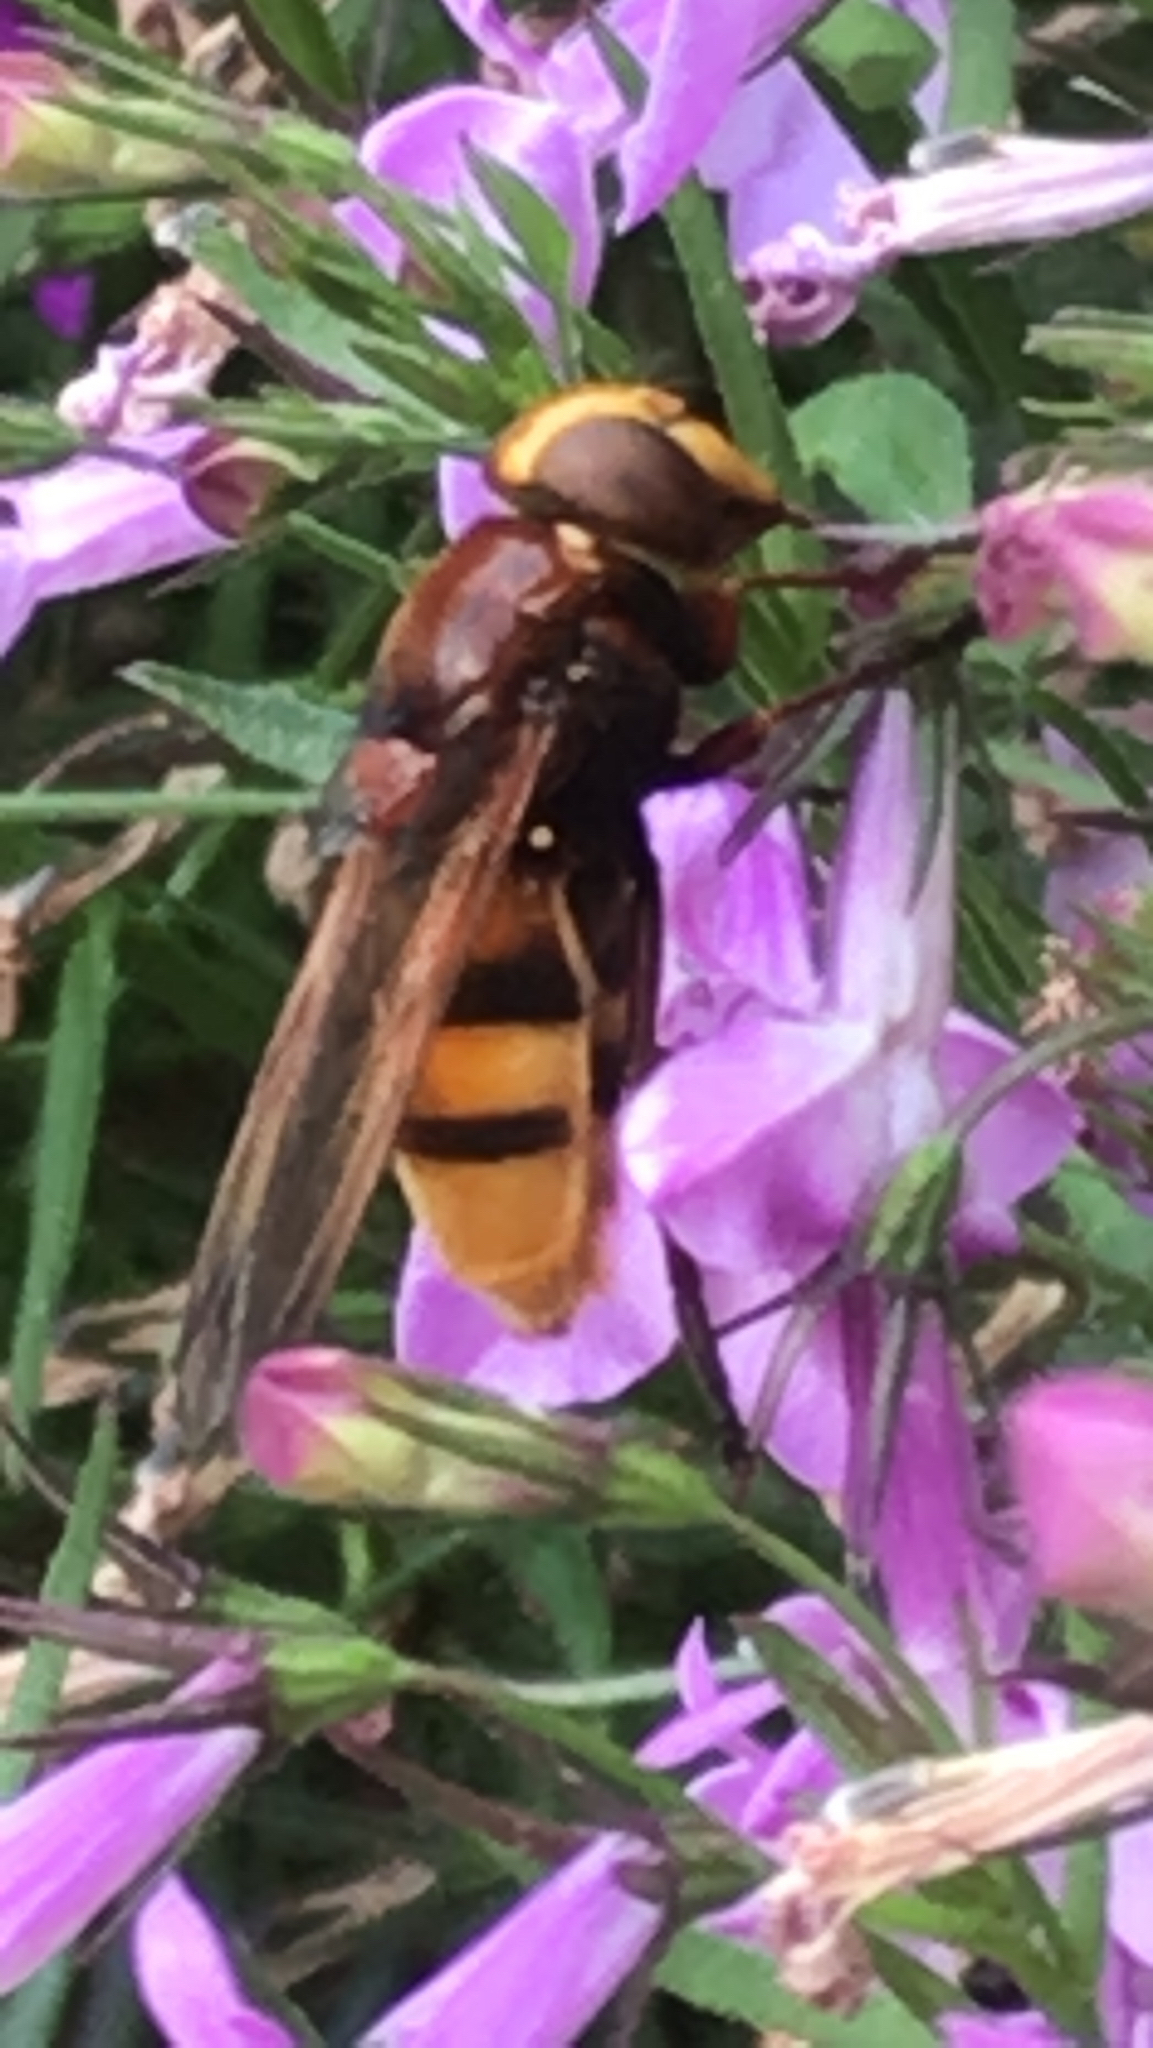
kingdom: Animalia
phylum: Arthropoda
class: Insecta
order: Diptera
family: Syrphidae
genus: Volucella
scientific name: Volucella zonaria
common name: Hornet hoverfly
